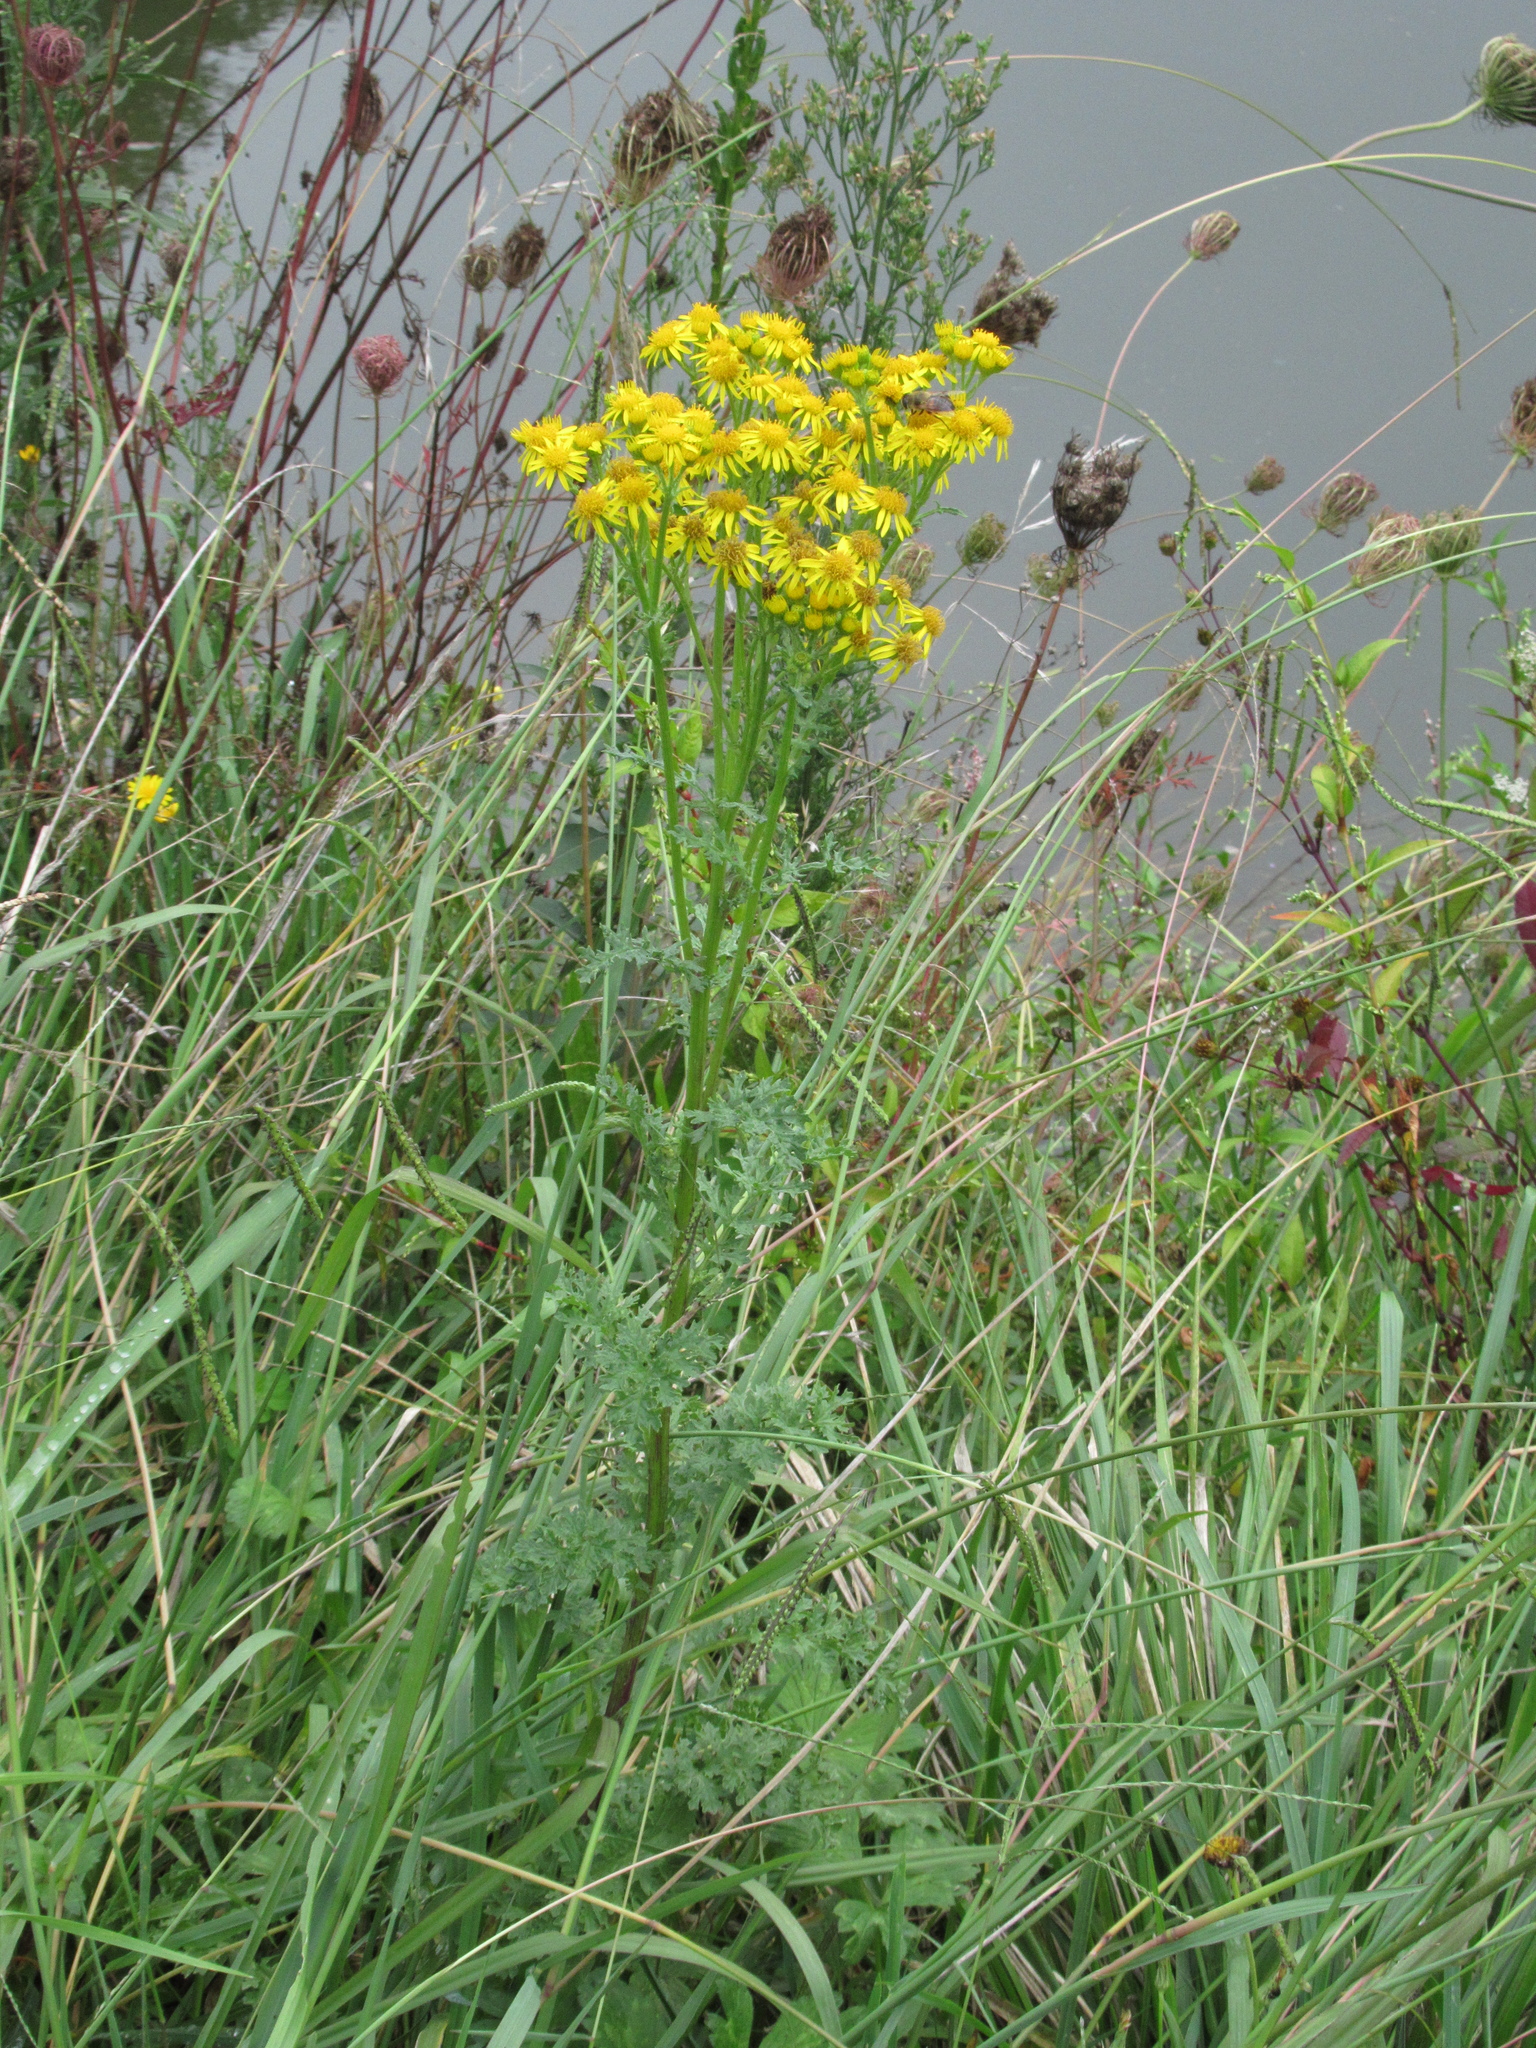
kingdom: Plantae
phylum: Tracheophyta
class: Magnoliopsida
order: Asterales
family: Asteraceae
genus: Jacobaea
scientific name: Jacobaea vulgaris
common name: Stinking willie
